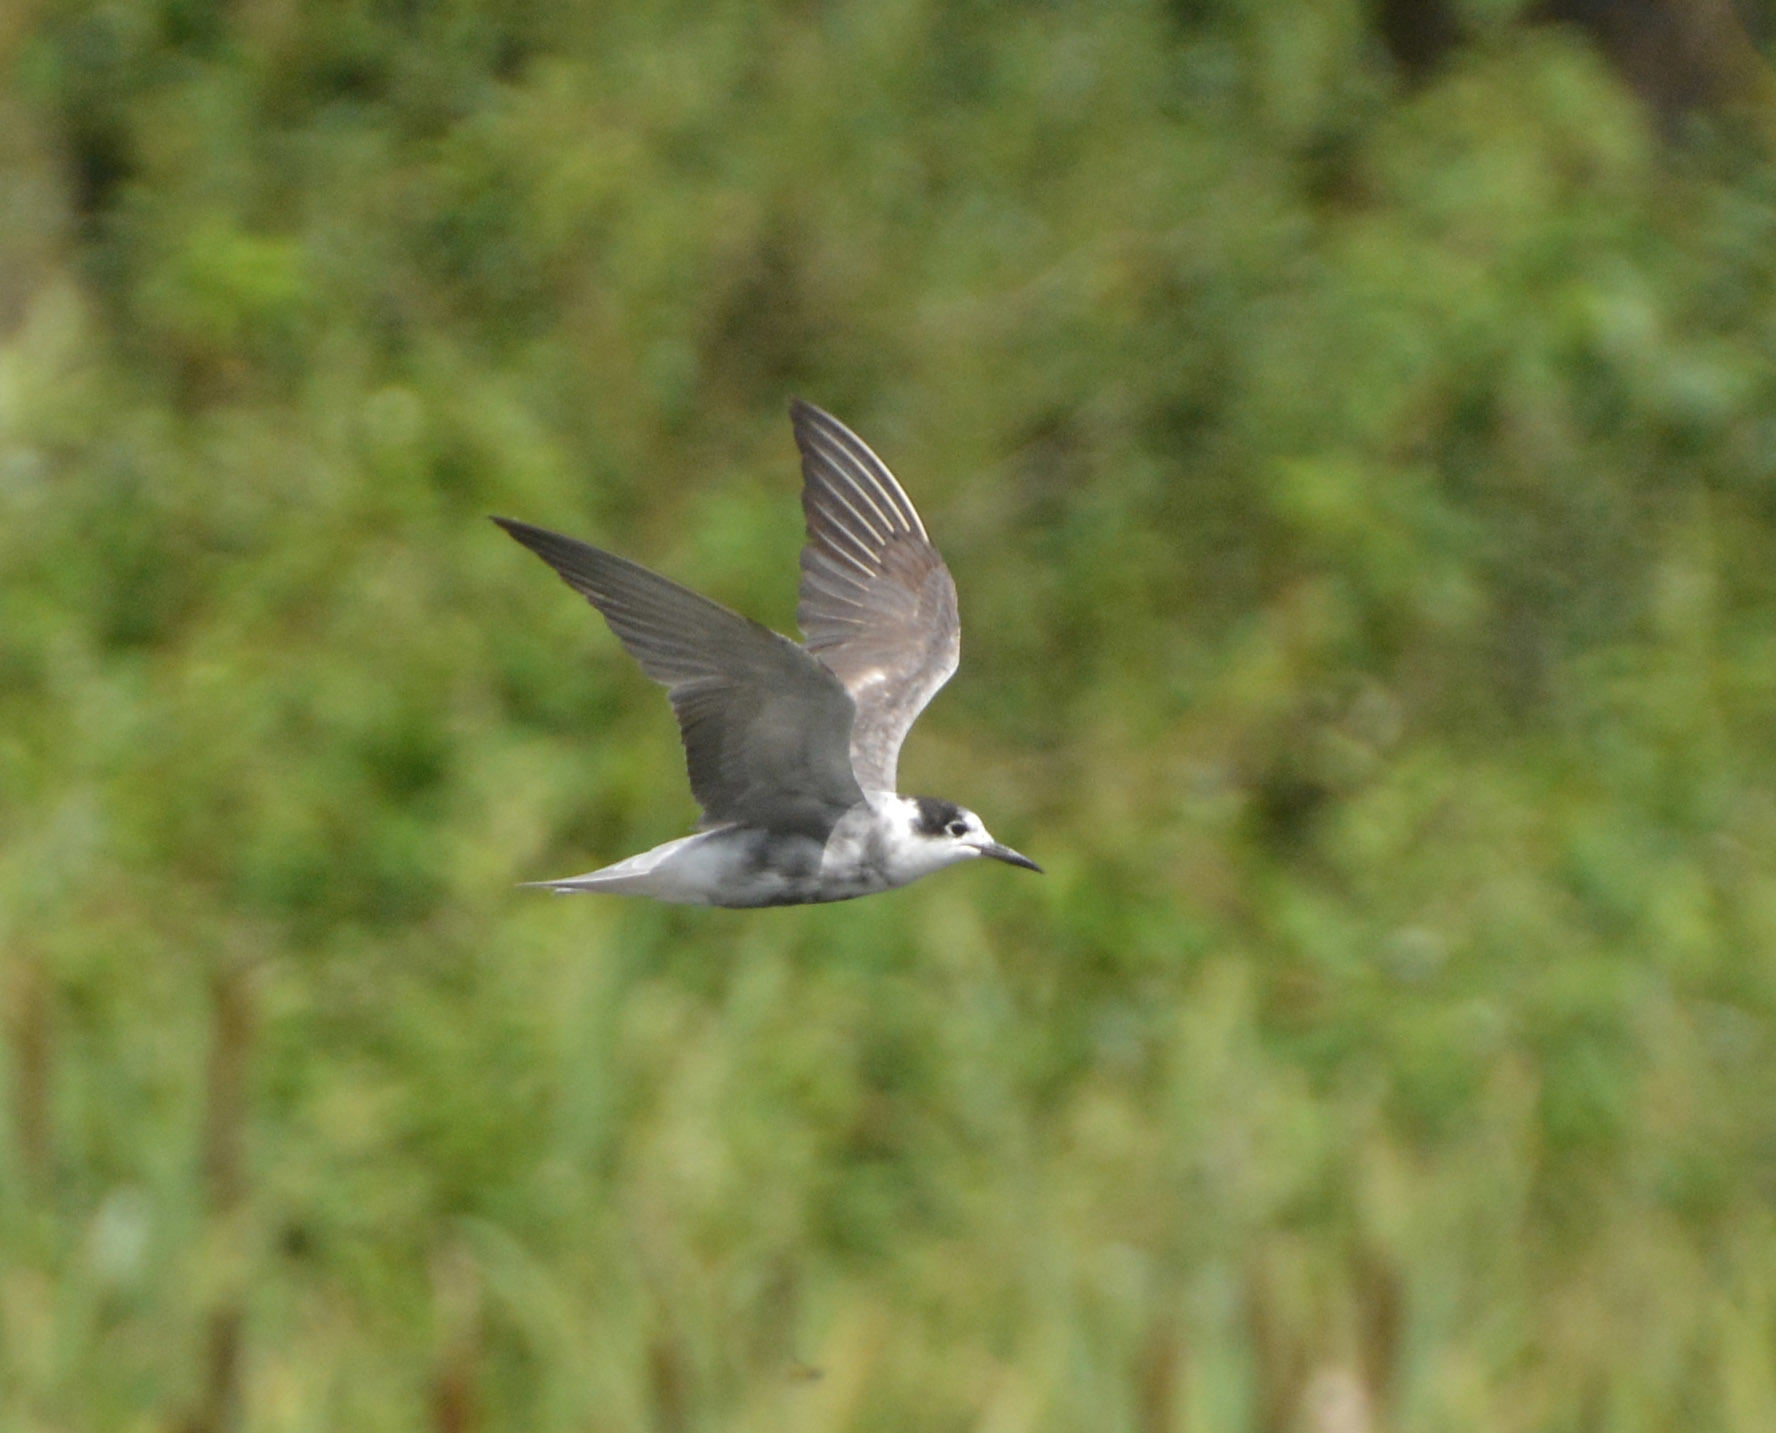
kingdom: Animalia
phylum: Chordata
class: Aves
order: Charadriiformes
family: Laridae
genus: Chlidonias
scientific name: Chlidonias niger
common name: Black tern
